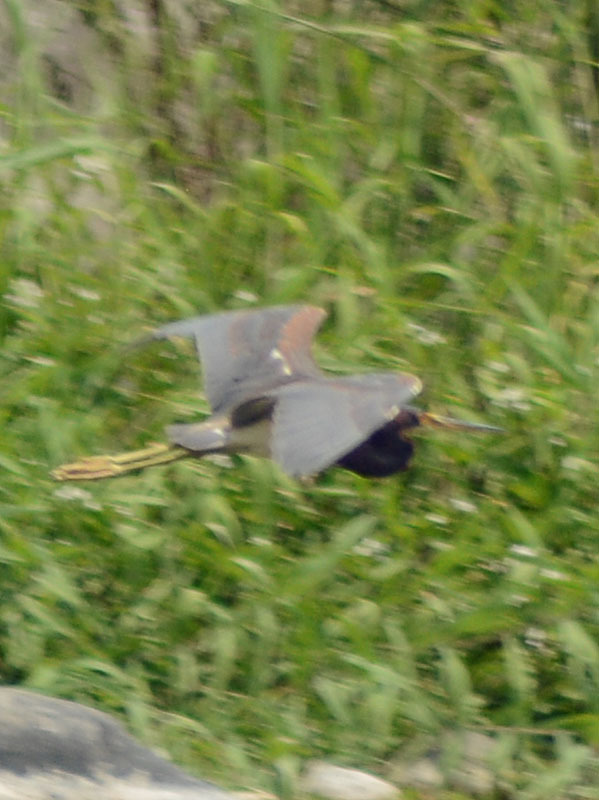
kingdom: Animalia
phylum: Chordata
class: Aves
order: Pelecaniformes
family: Ardeidae
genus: Egretta
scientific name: Egretta tricolor
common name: Tricolored heron
